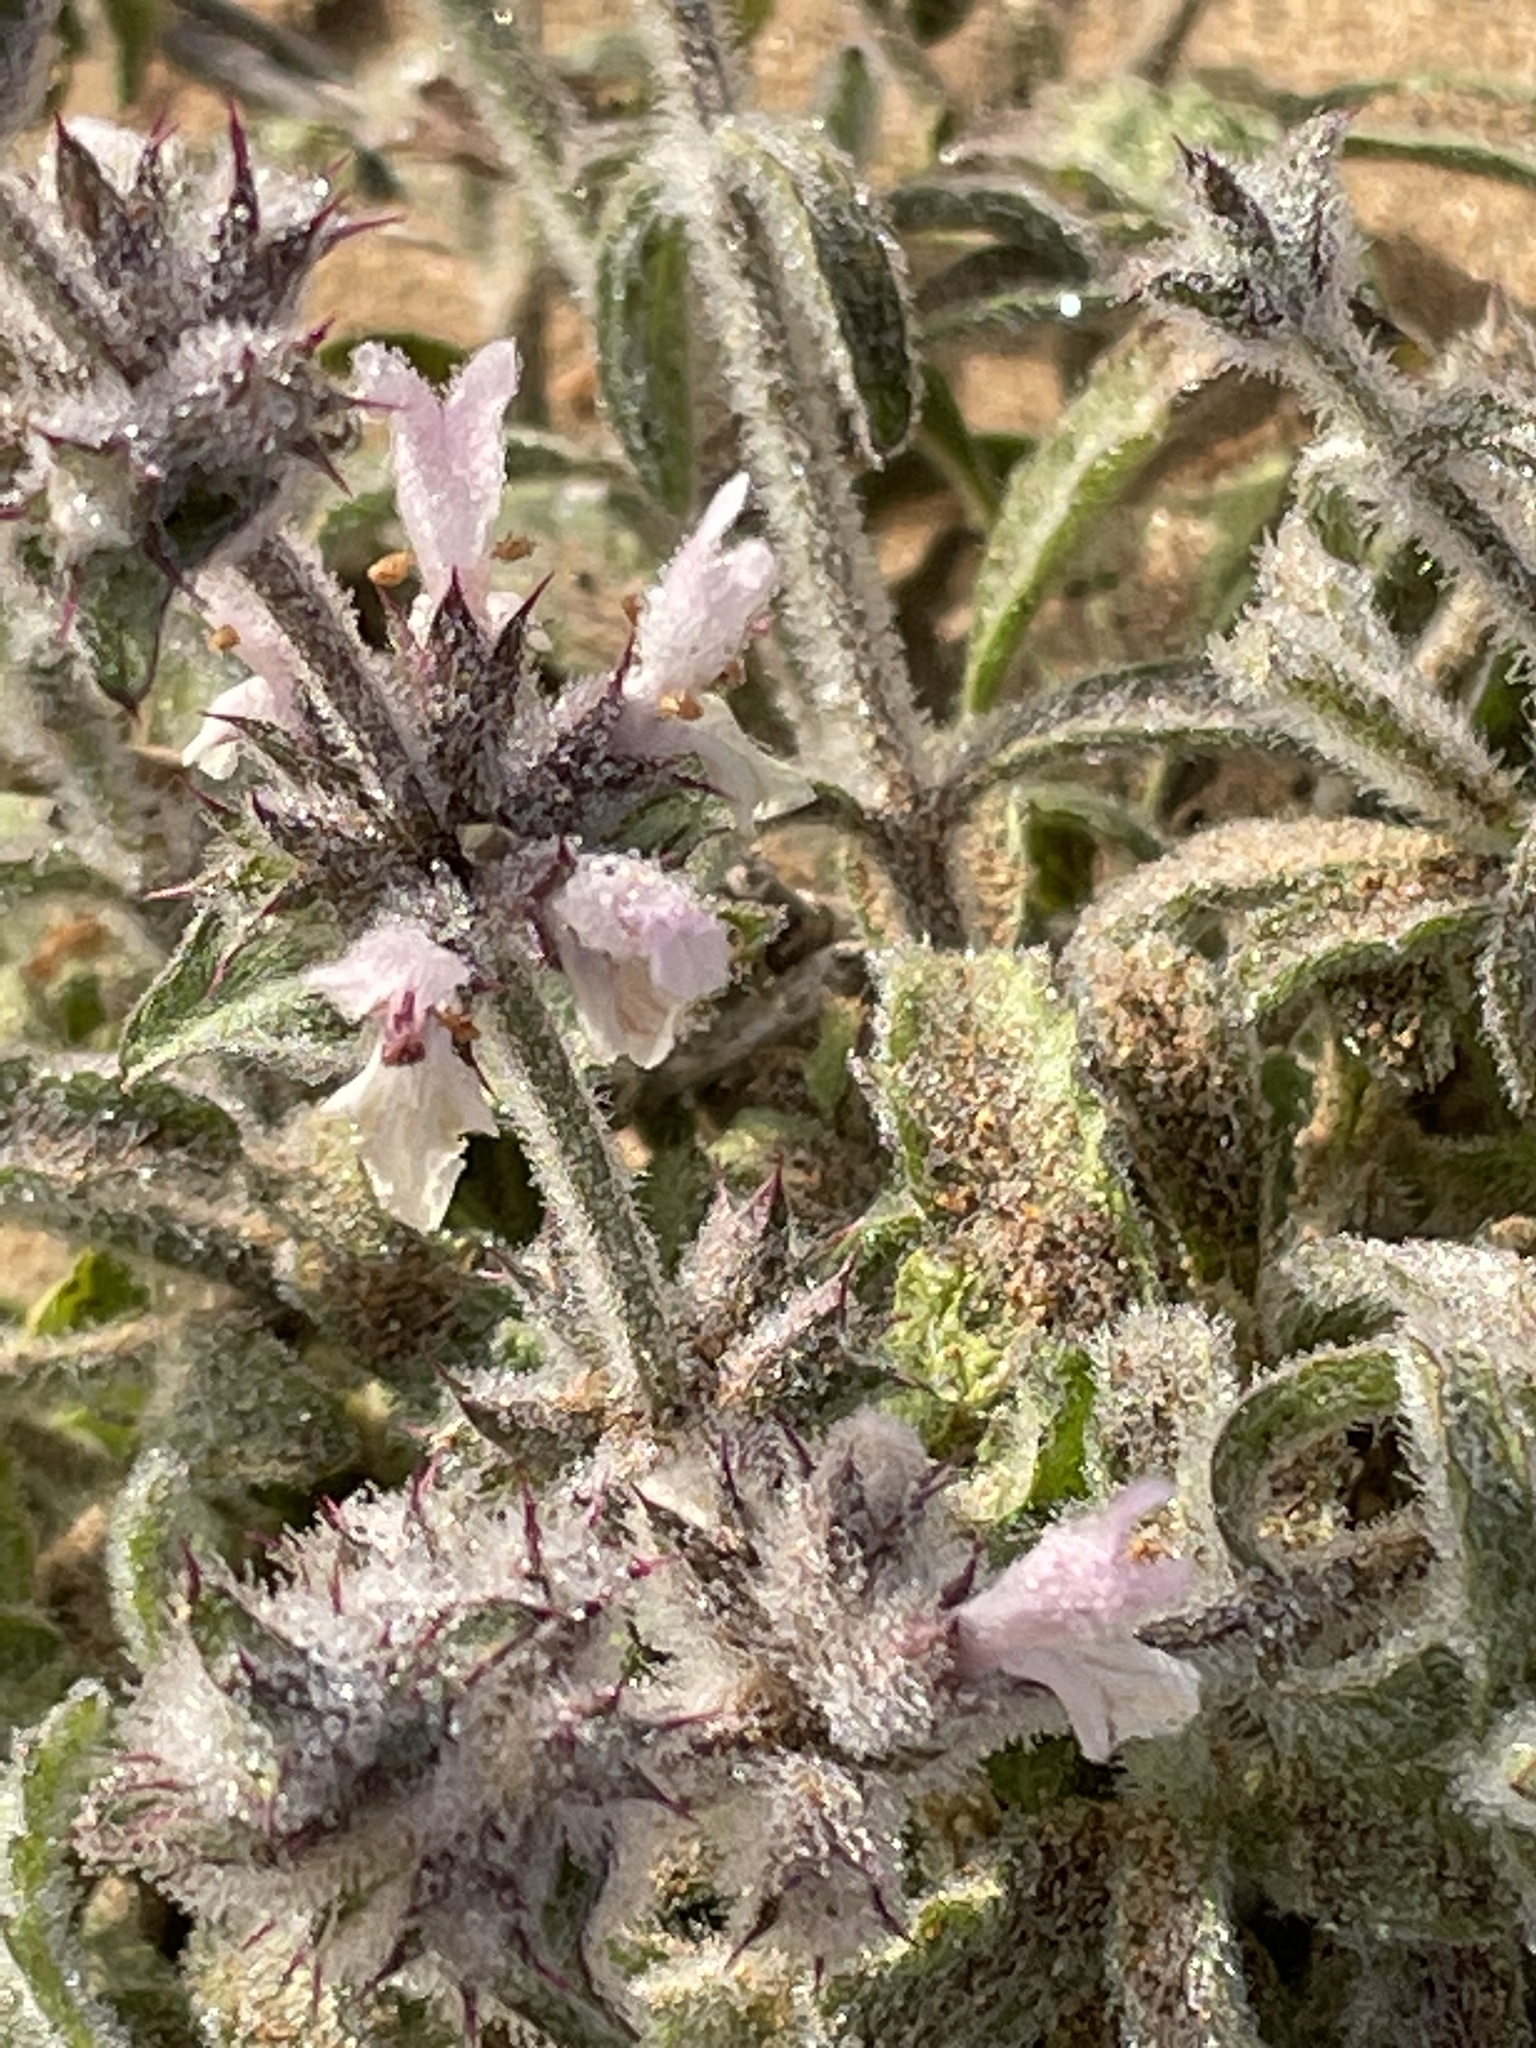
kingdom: Plantae
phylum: Tracheophyta
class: Magnoliopsida
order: Lamiales
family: Lamiaceae
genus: Stachys
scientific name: Stachys arenaria
